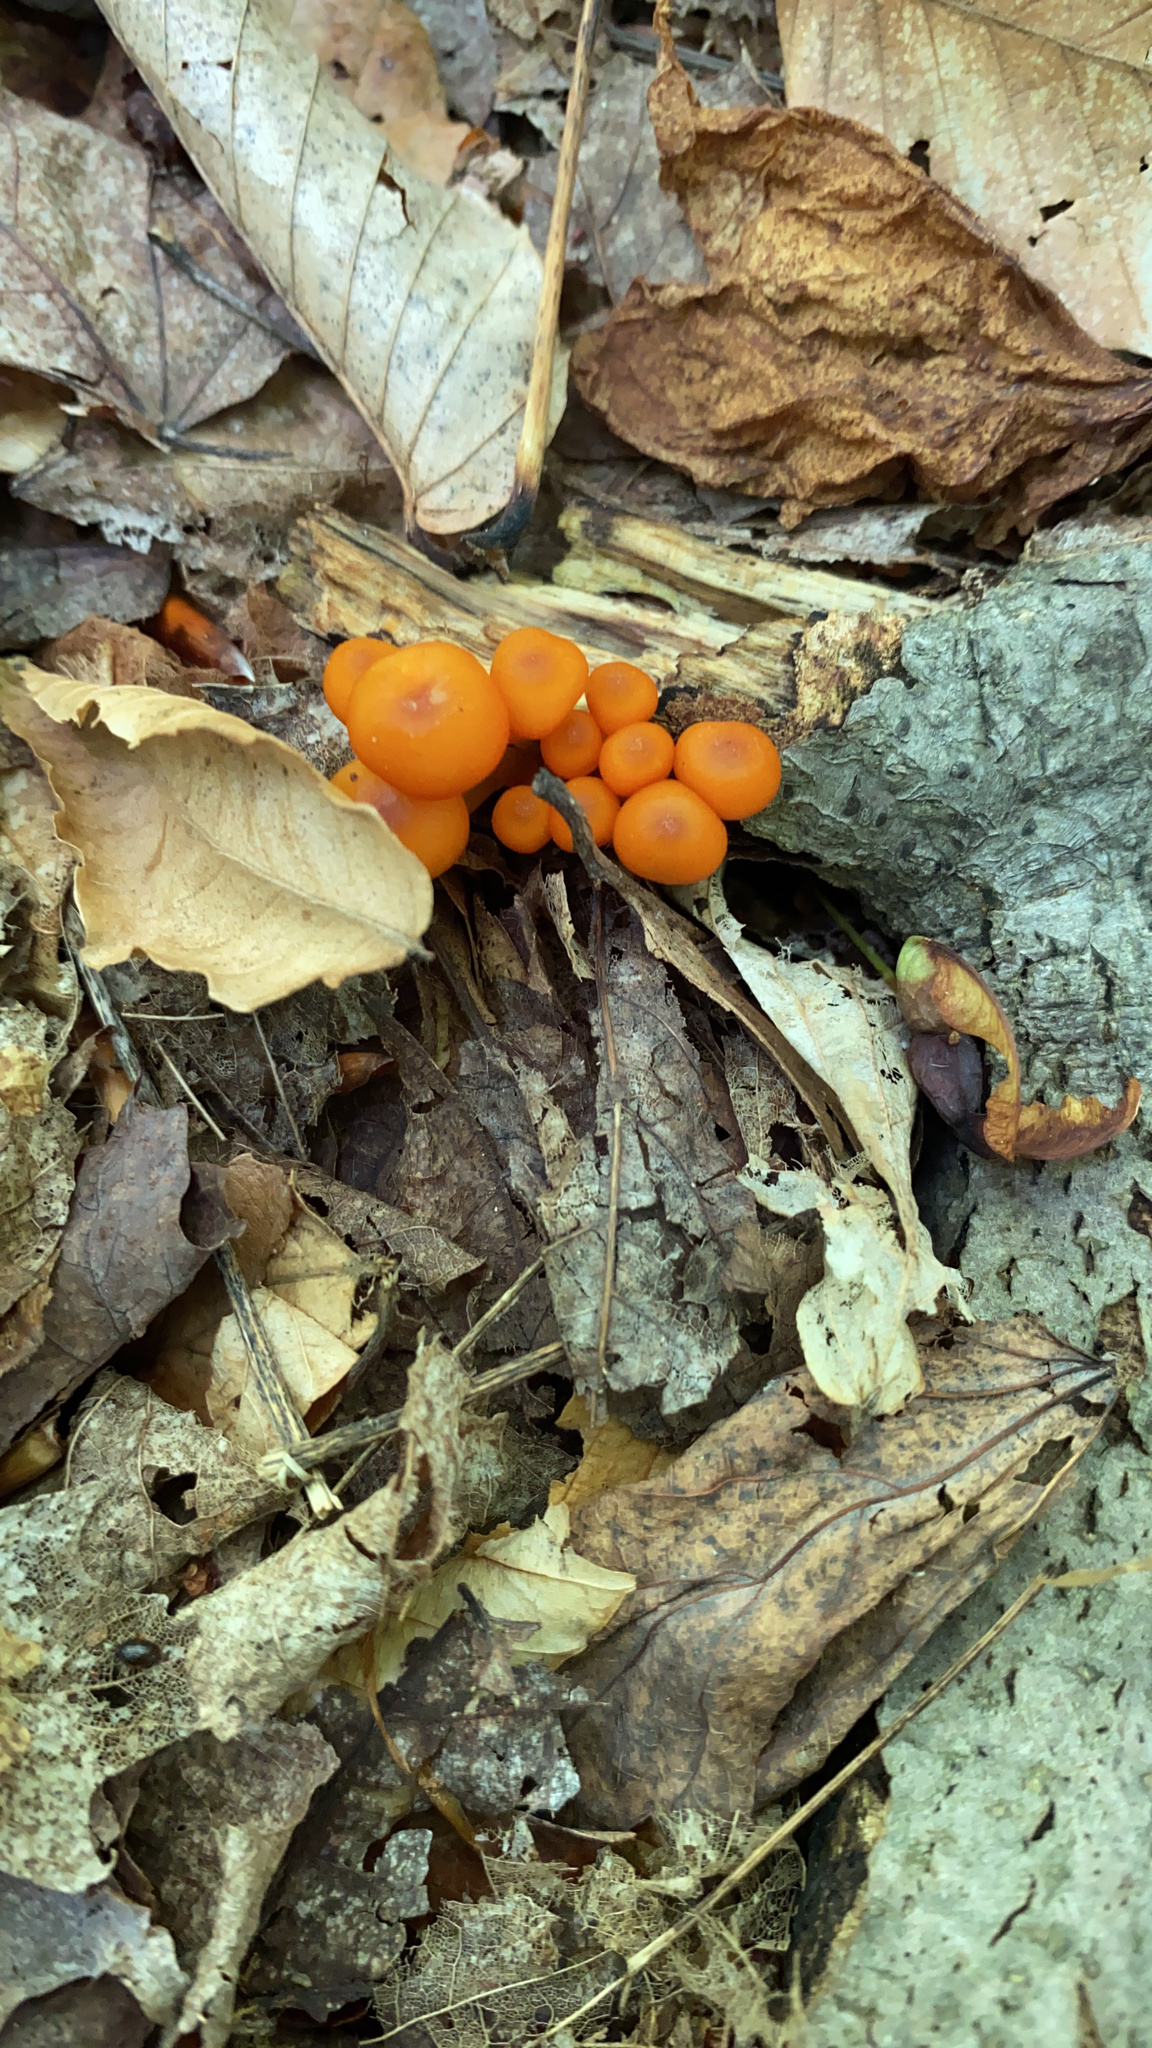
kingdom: Fungi
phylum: Basidiomycota
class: Agaricomycetes
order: Agaricales
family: Mycenaceae
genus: Mycena
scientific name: Mycena leaiana
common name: Orange mycena
